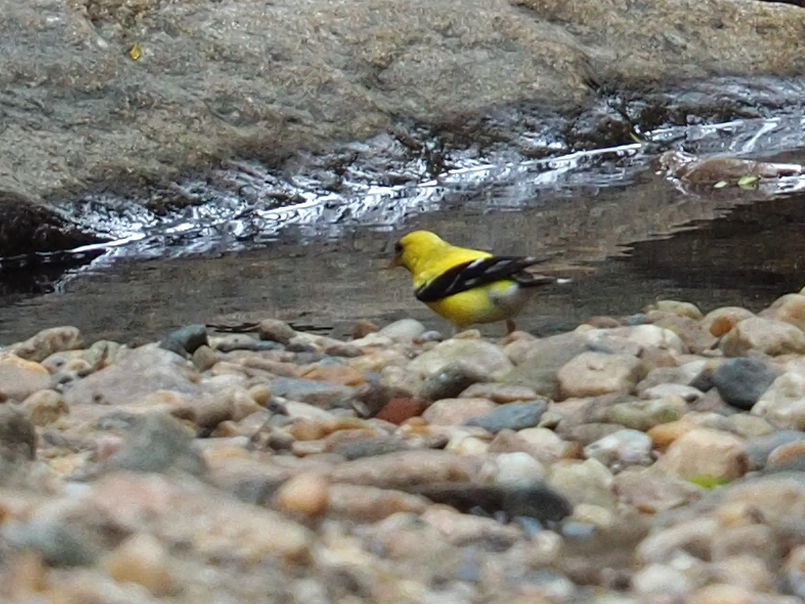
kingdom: Animalia
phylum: Chordata
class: Aves
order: Passeriformes
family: Fringillidae
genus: Spinus
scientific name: Spinus tristis
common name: American goldfinch
